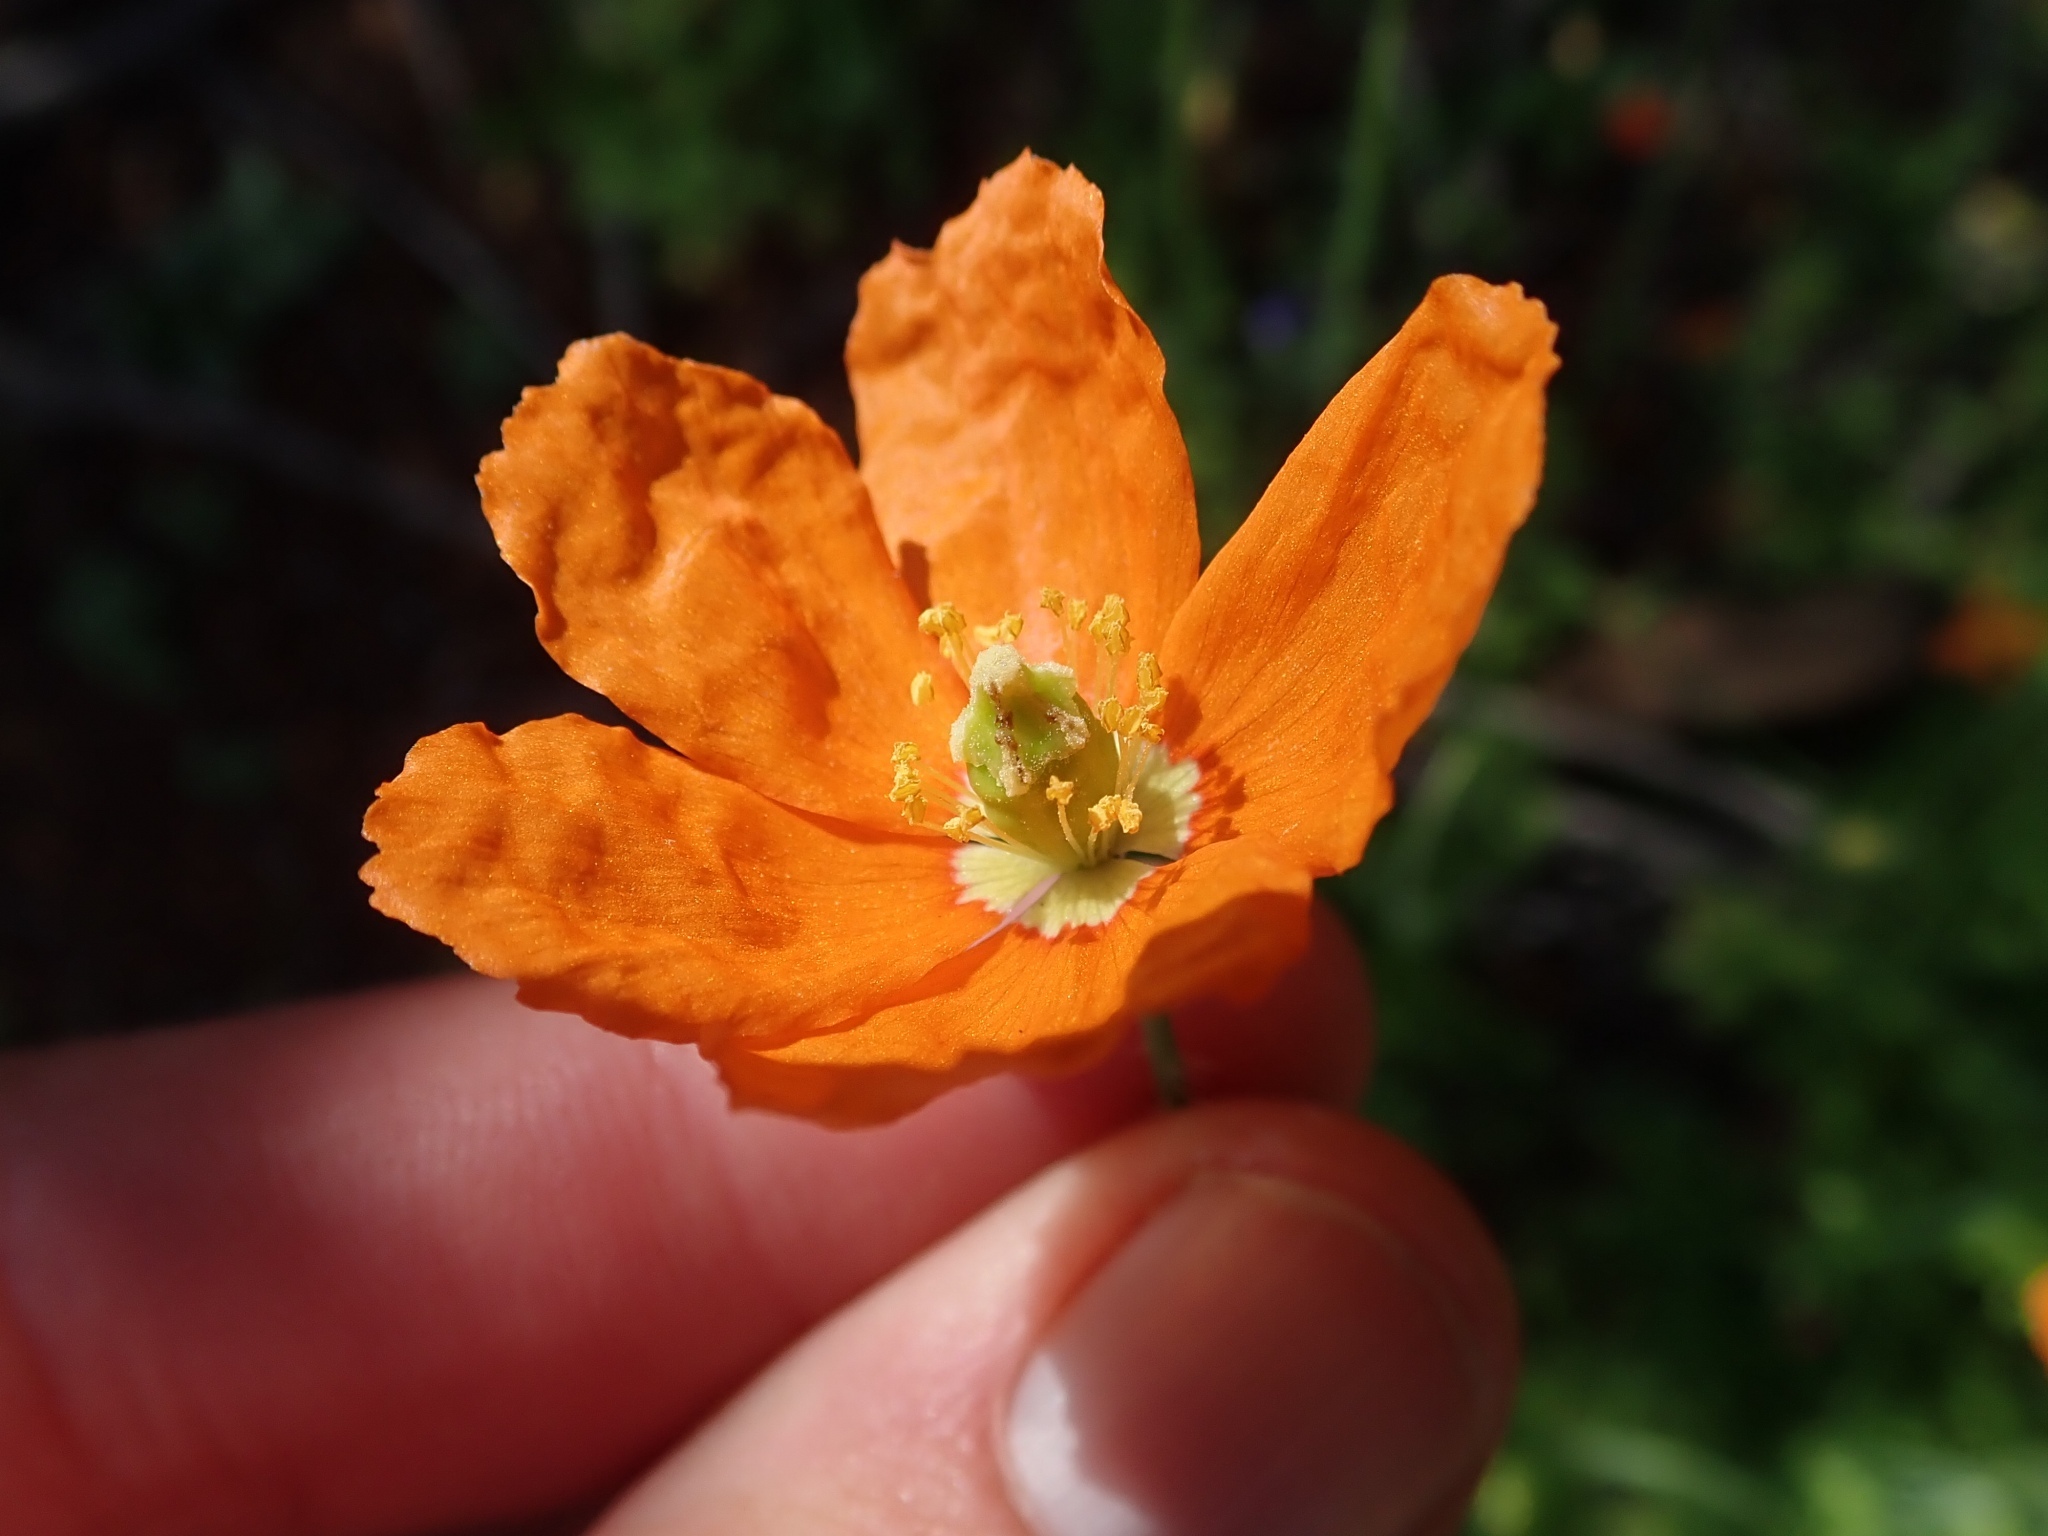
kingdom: Plantae
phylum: Tracheophyta
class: Magnoliopsida
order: Ranunculales
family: Papaveraceae
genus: Papaver
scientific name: Papaver californicum
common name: Fire poppy
